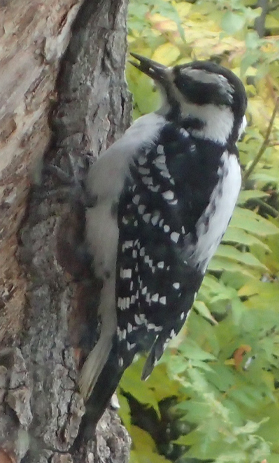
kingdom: Animalia
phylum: Chordata
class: Aves
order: Piciformes
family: Picidae
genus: Leuconotopicus
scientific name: Leuconotopicus villosus
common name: Hairy woodpecker
